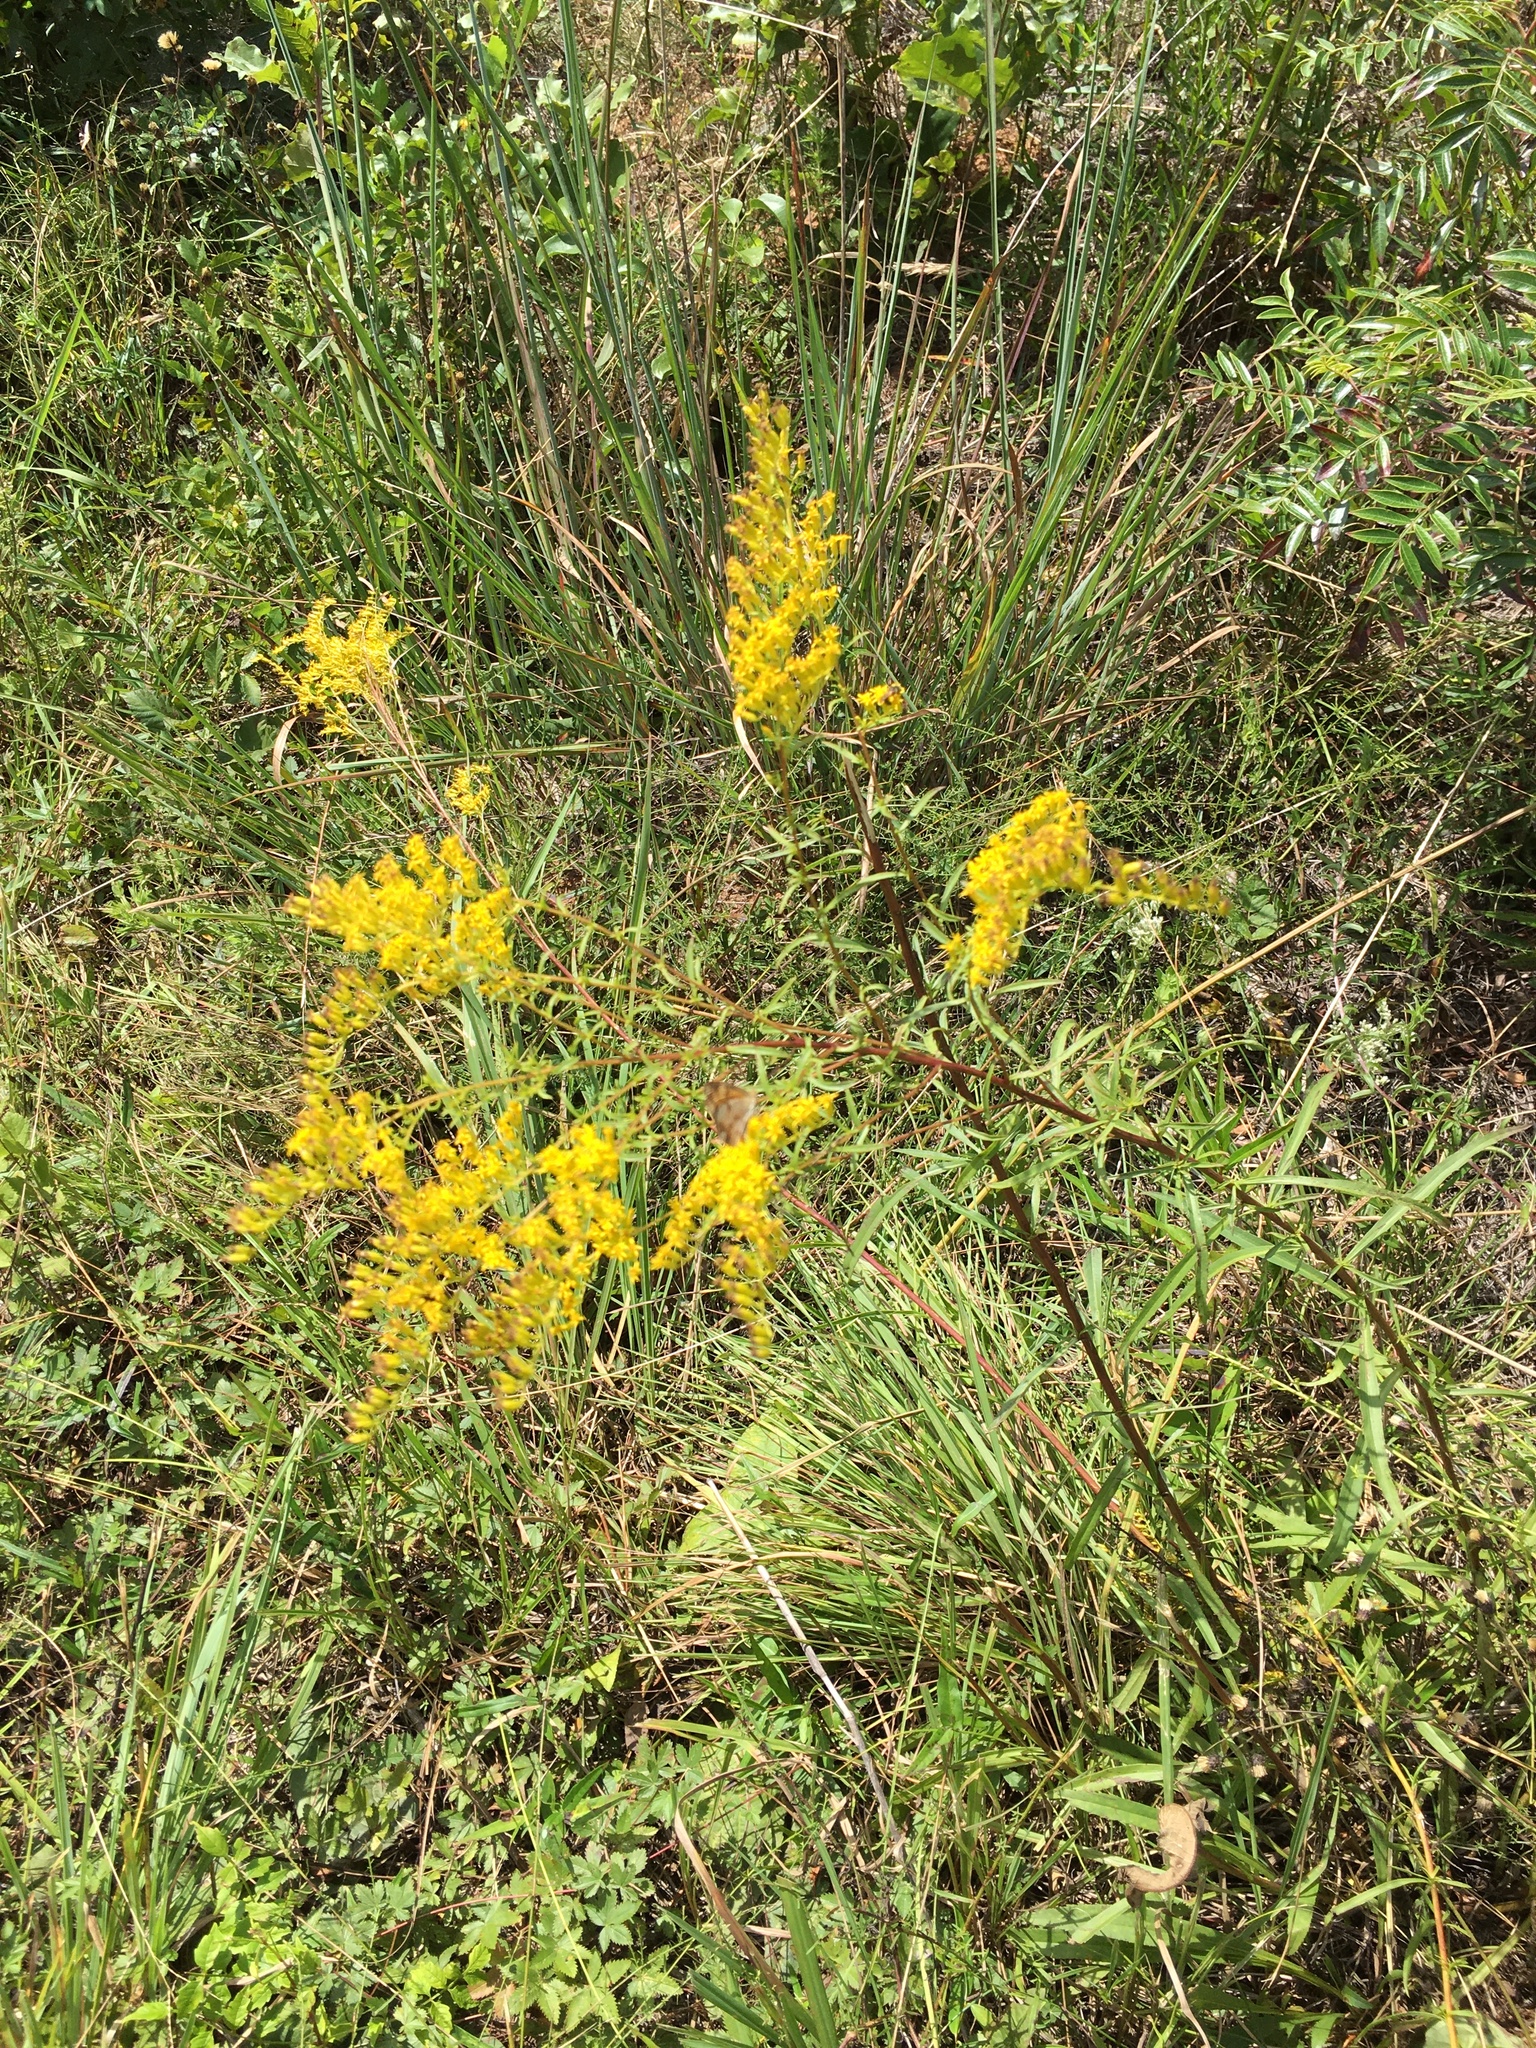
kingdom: Plantae
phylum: Tracheophyta
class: Magnoliopsida
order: Asterales
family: Asteraceae
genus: Solidago
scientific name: Solidago pinetorum
